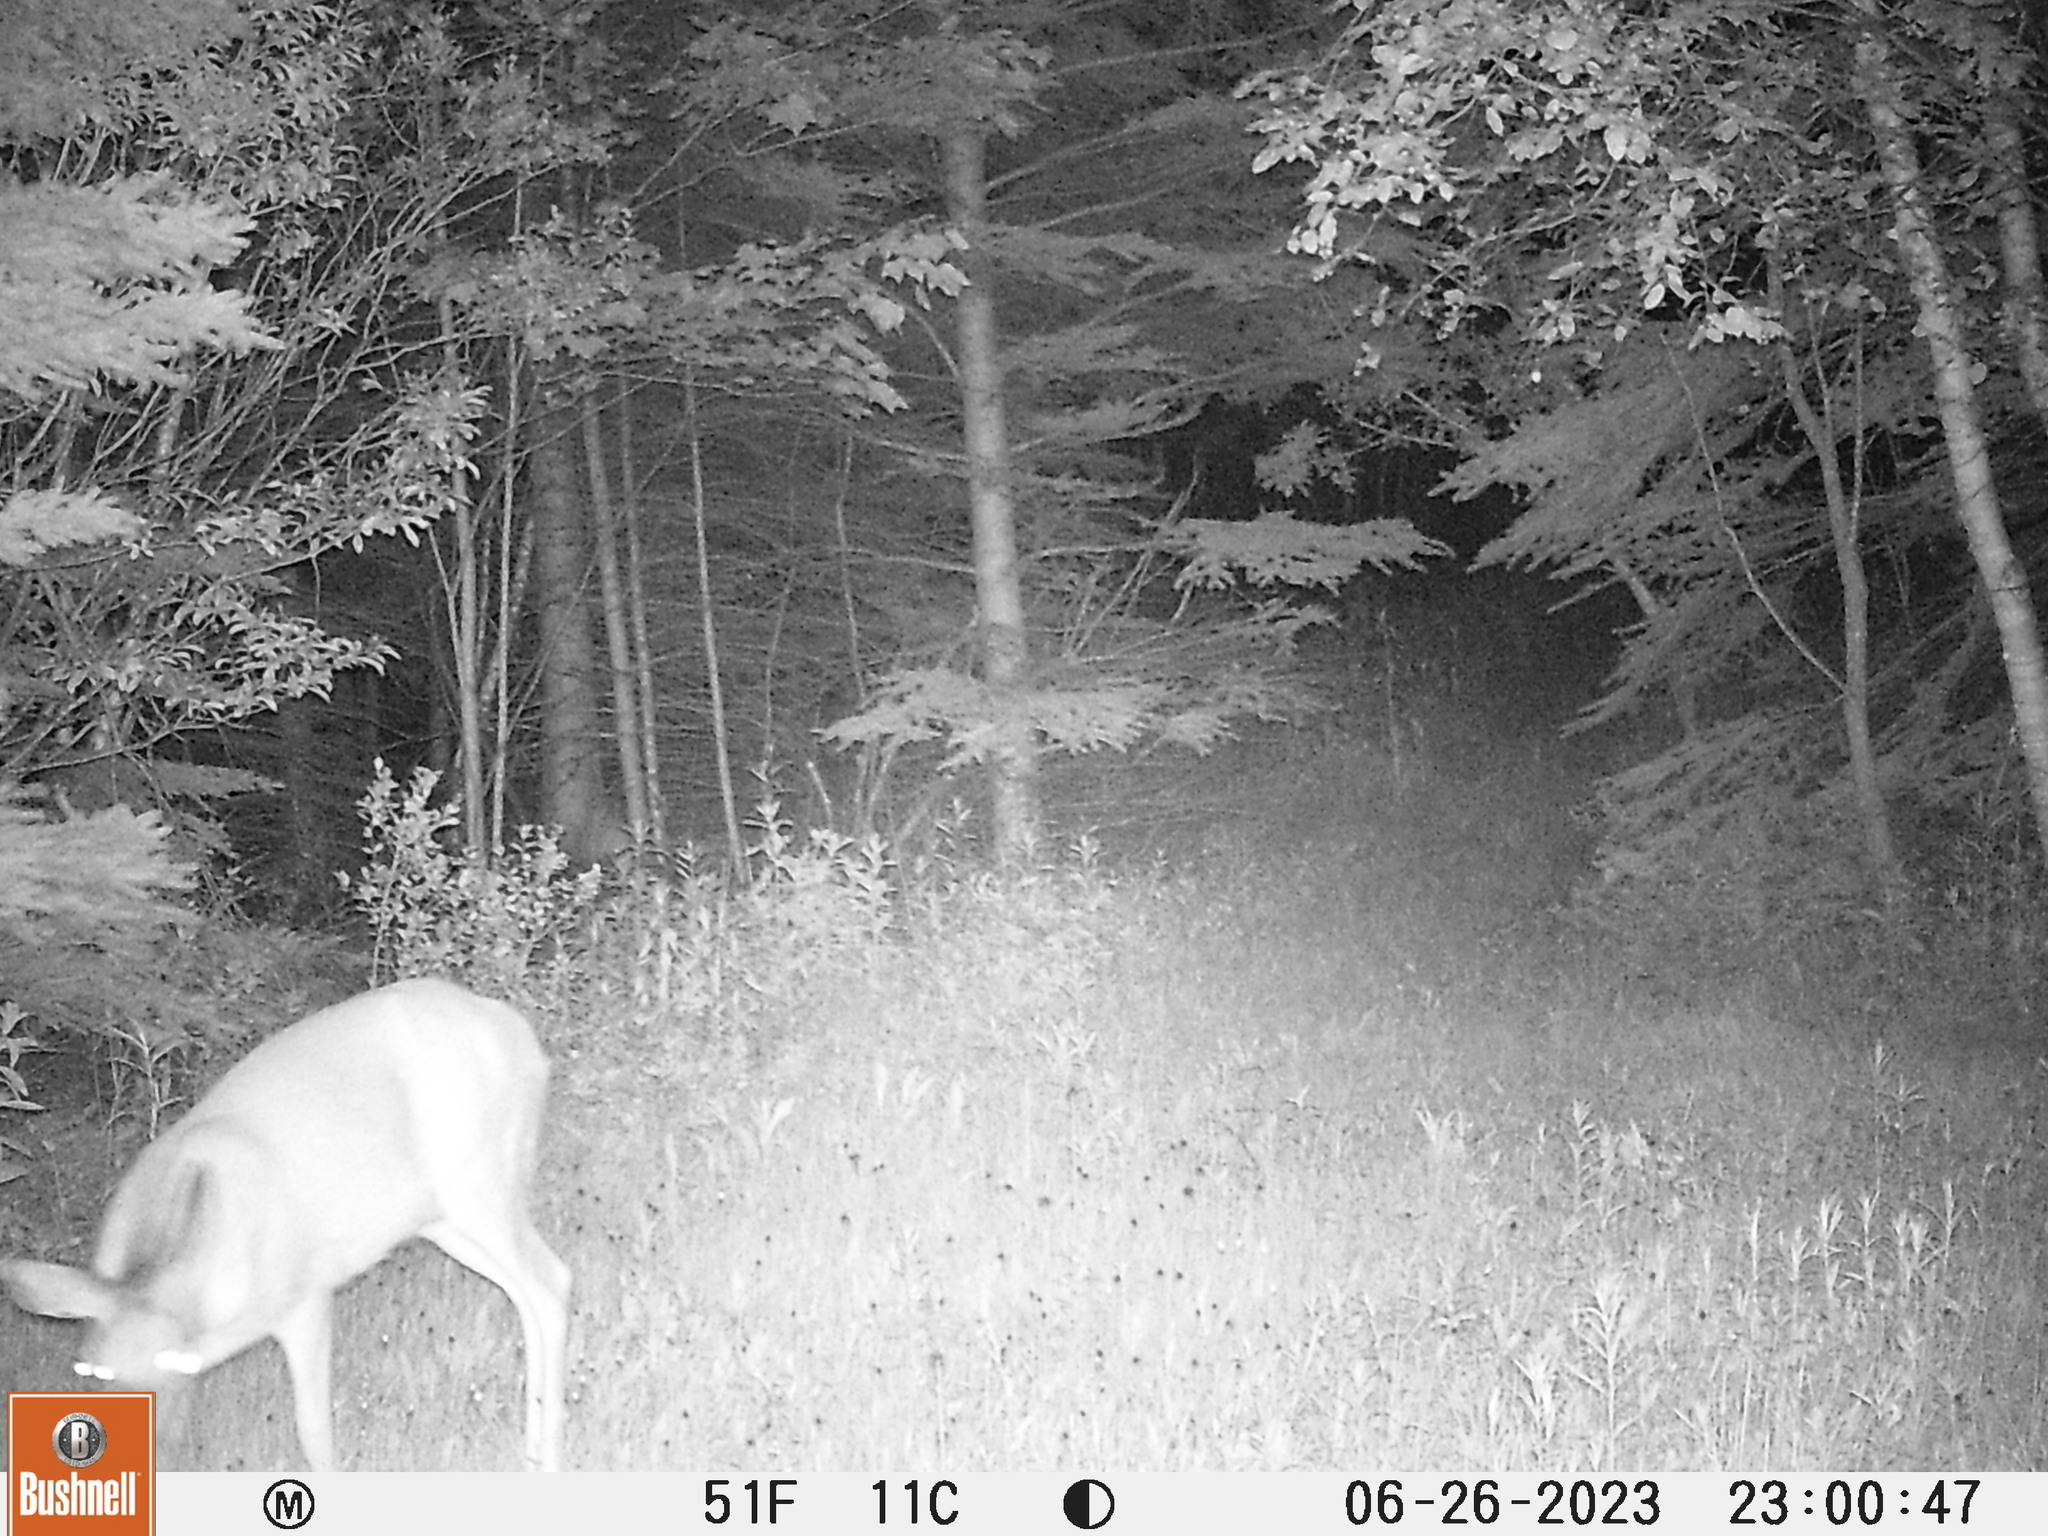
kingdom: Animalia
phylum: Chordata
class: Mammalia
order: Artiodactyla
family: Cervidae
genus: Odocoileus
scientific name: Odocoileus virginianus
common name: White-tailed deer
